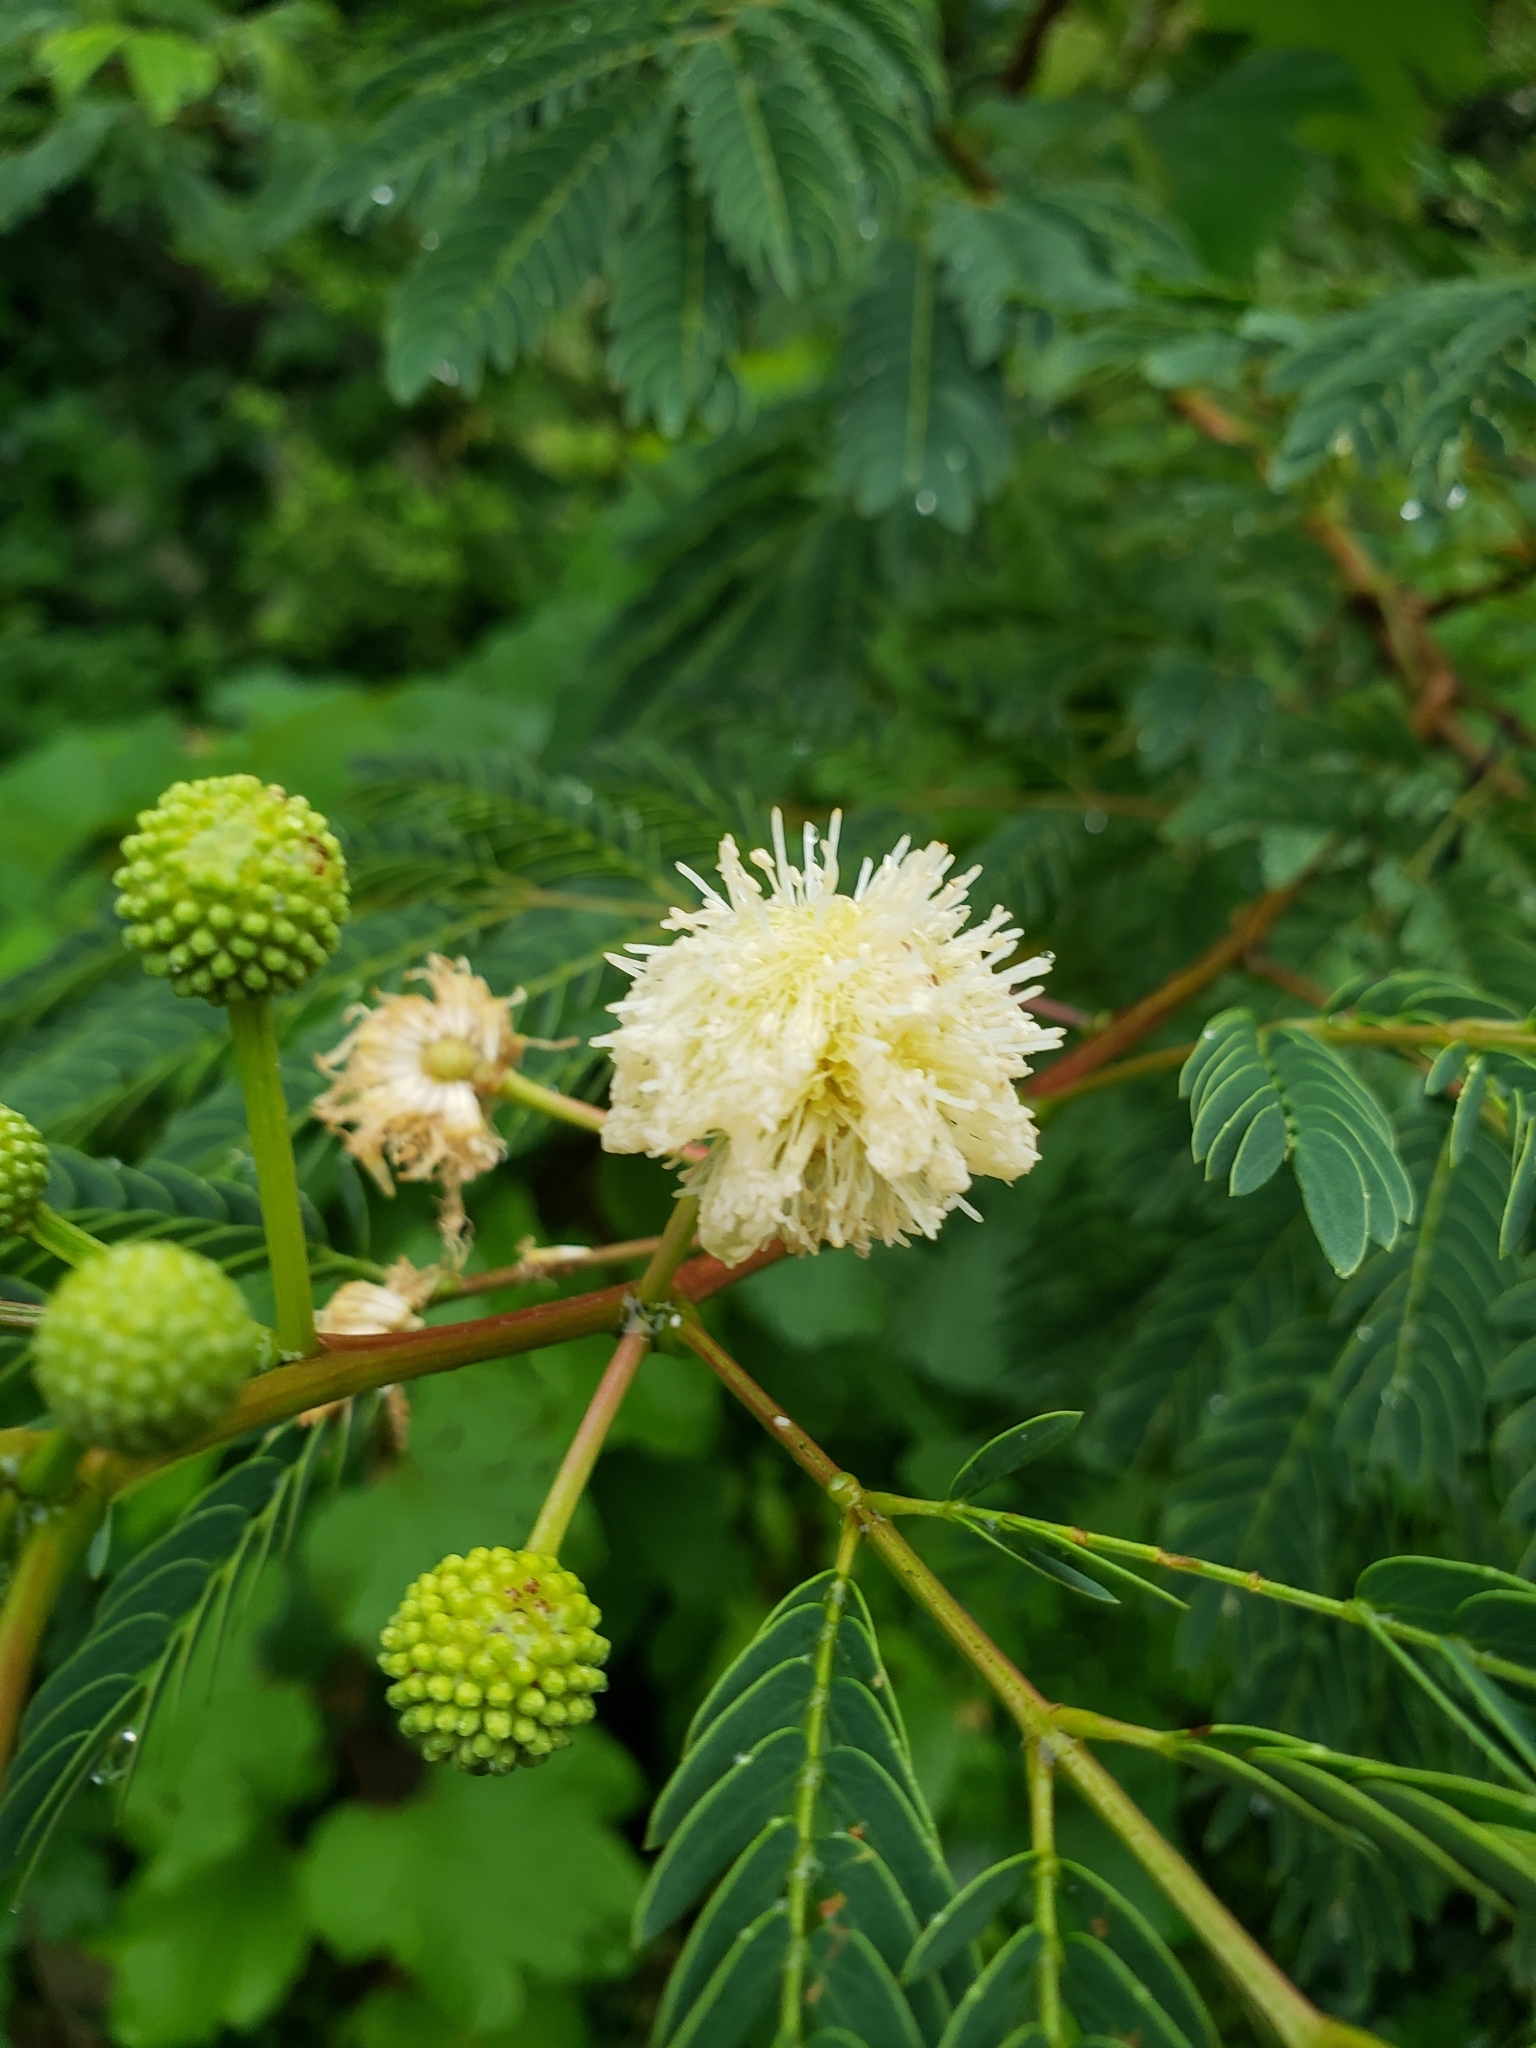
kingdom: Plantae
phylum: Tracheophyta
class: Magnoliopsida
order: Fabales
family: Fabaceae
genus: Leucaena
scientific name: Leucaena leucocephala
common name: White leadtree
